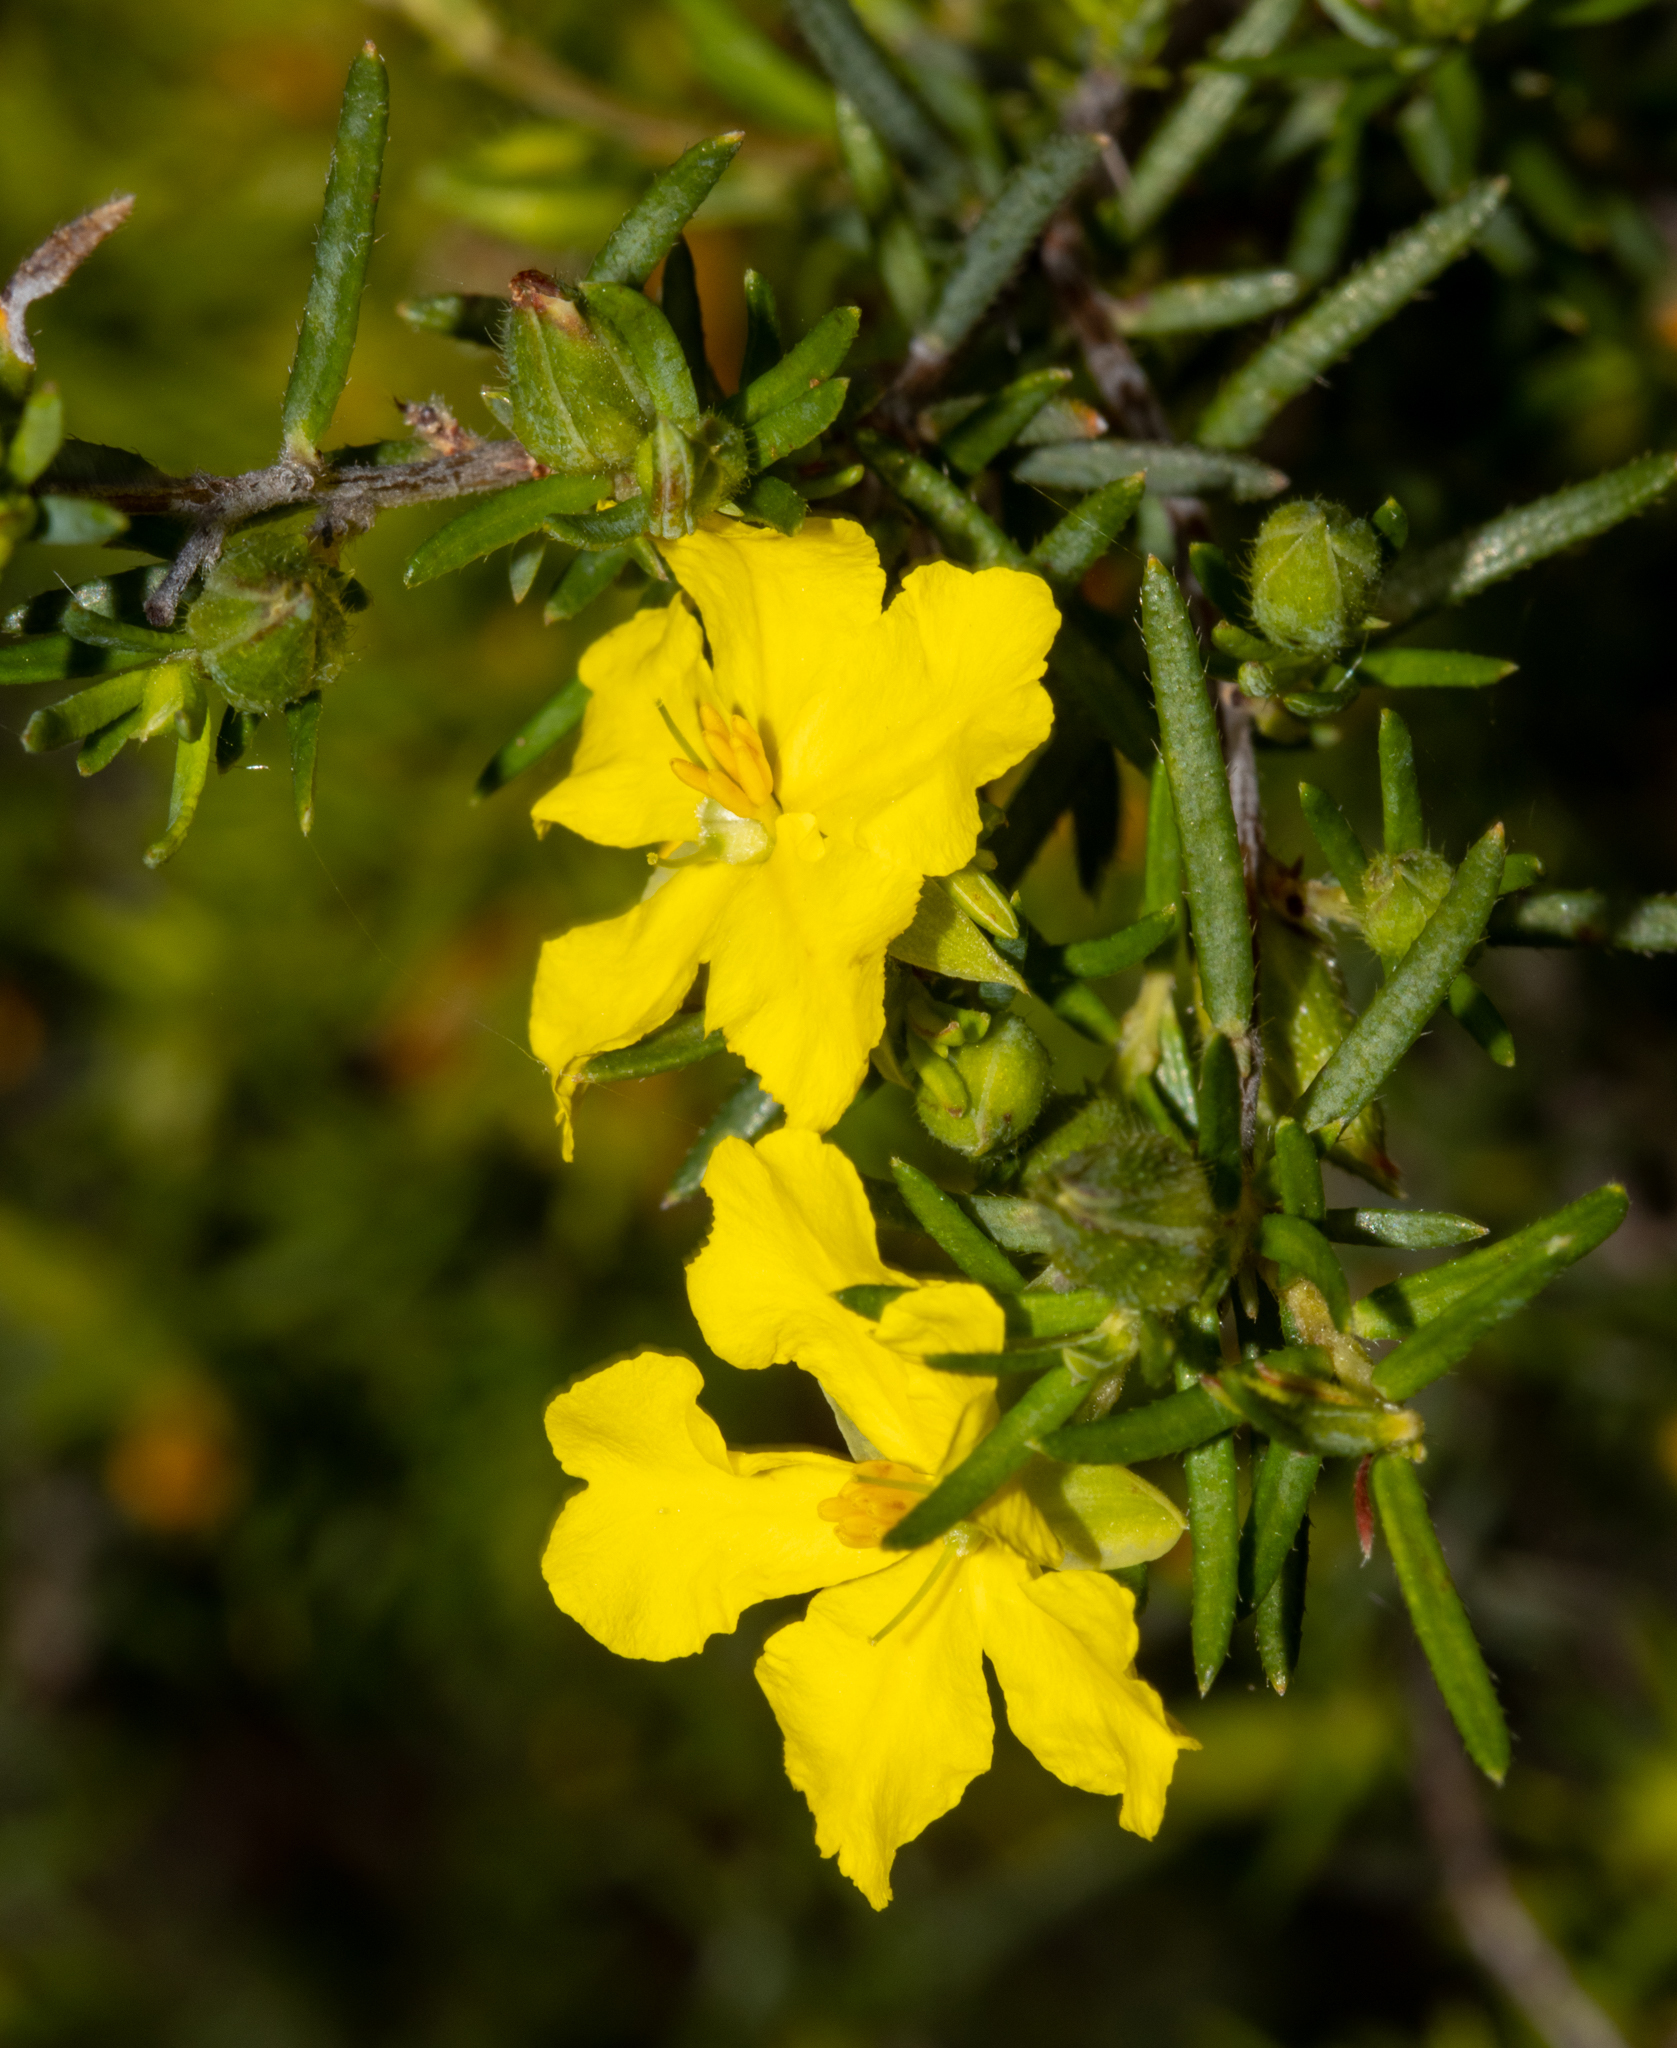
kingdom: Plantae
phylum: Tracheophyta
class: Magnoliopsida
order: Dilleniales
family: Dilleniaceae
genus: Hibbertia
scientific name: Hibbertia riparia
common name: Erect guinea-flower
